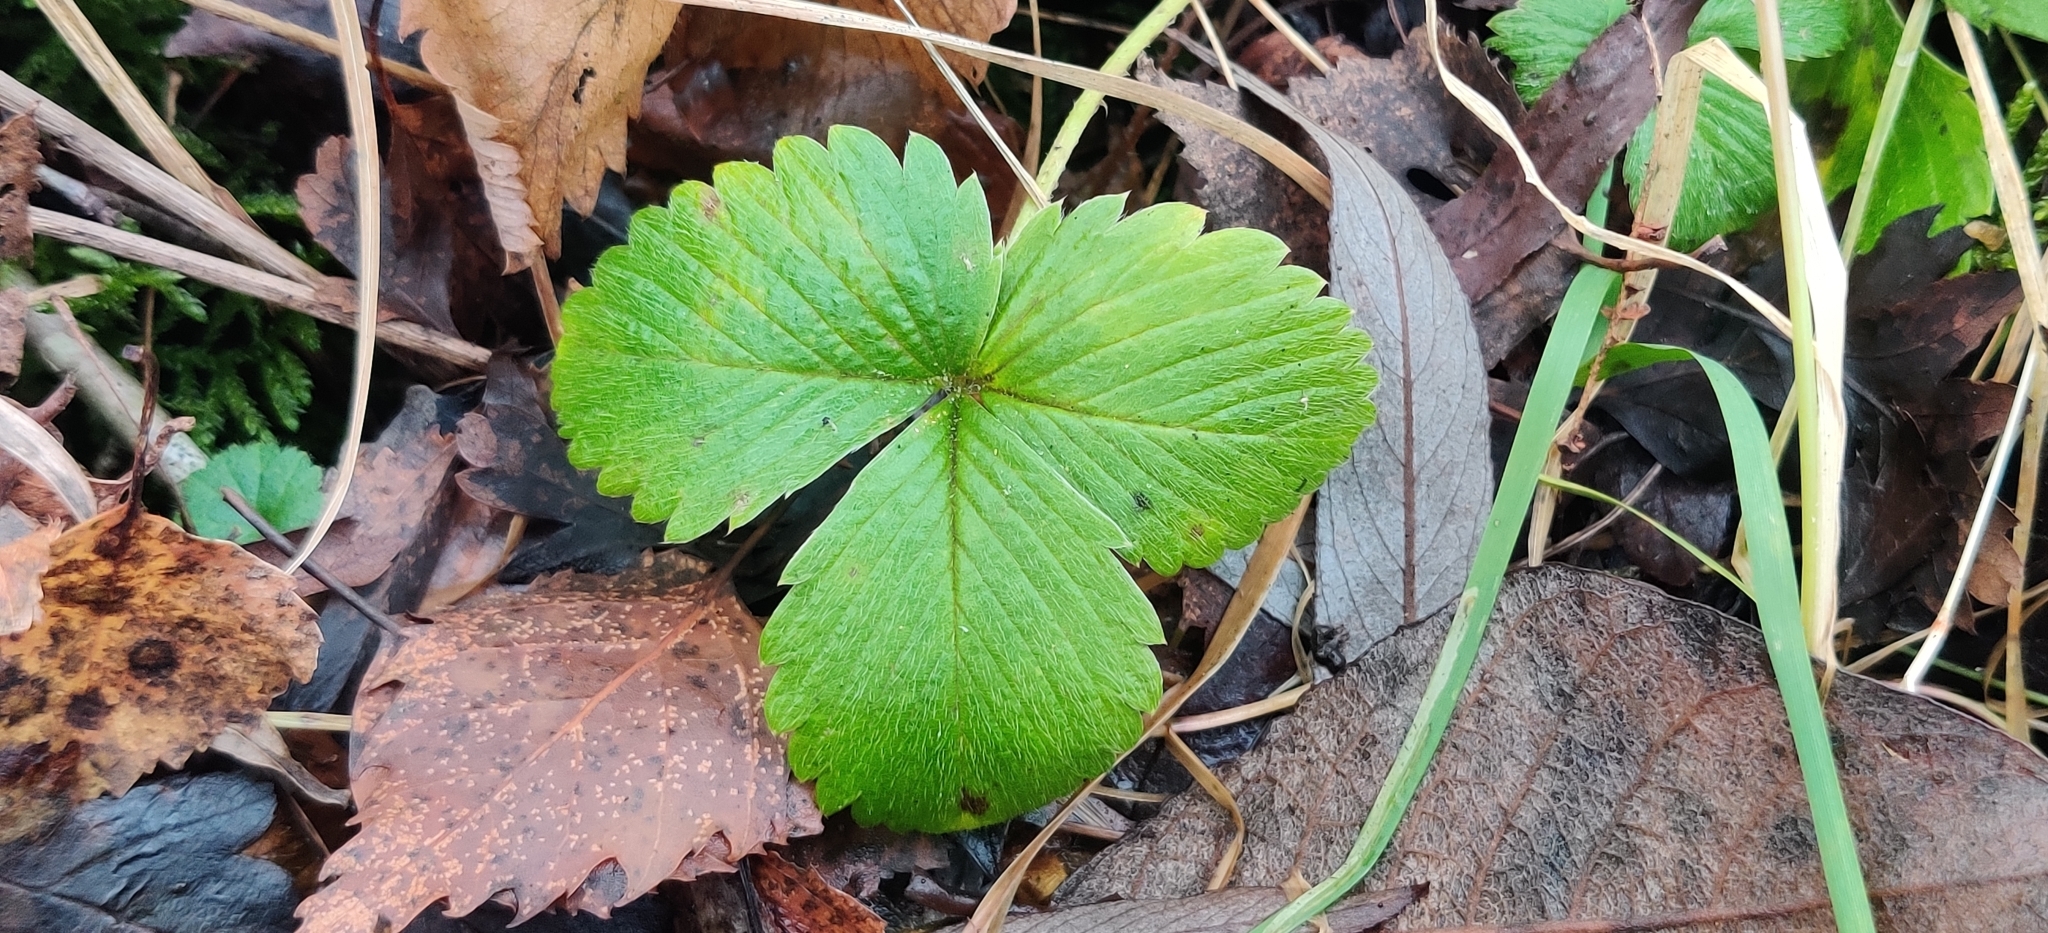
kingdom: Plantae
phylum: Tracheophyta
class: Magnoliopsida
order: Rosales
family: Rosaceae
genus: Fragaria
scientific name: Fragaria vesca
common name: Wild strawberry
